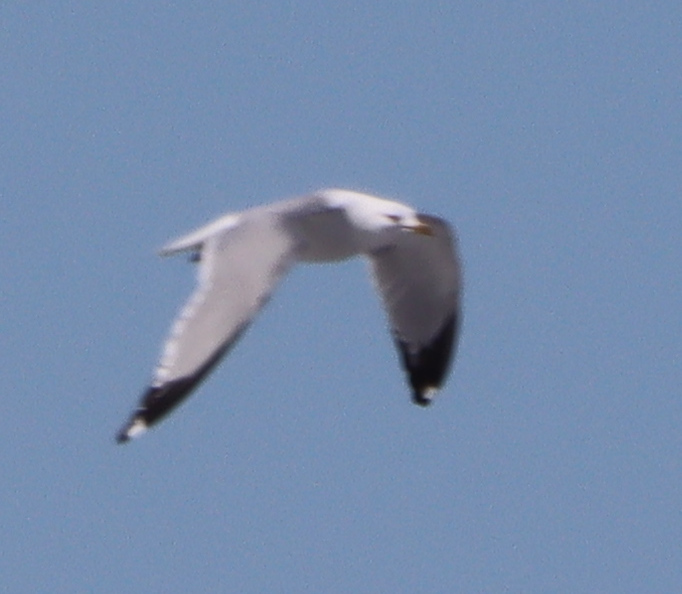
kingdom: Animalia
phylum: Chordata
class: Aves
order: Charadriiformes
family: Laridae
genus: Larus
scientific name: Larus delawarensis
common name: Ring-billed gull
